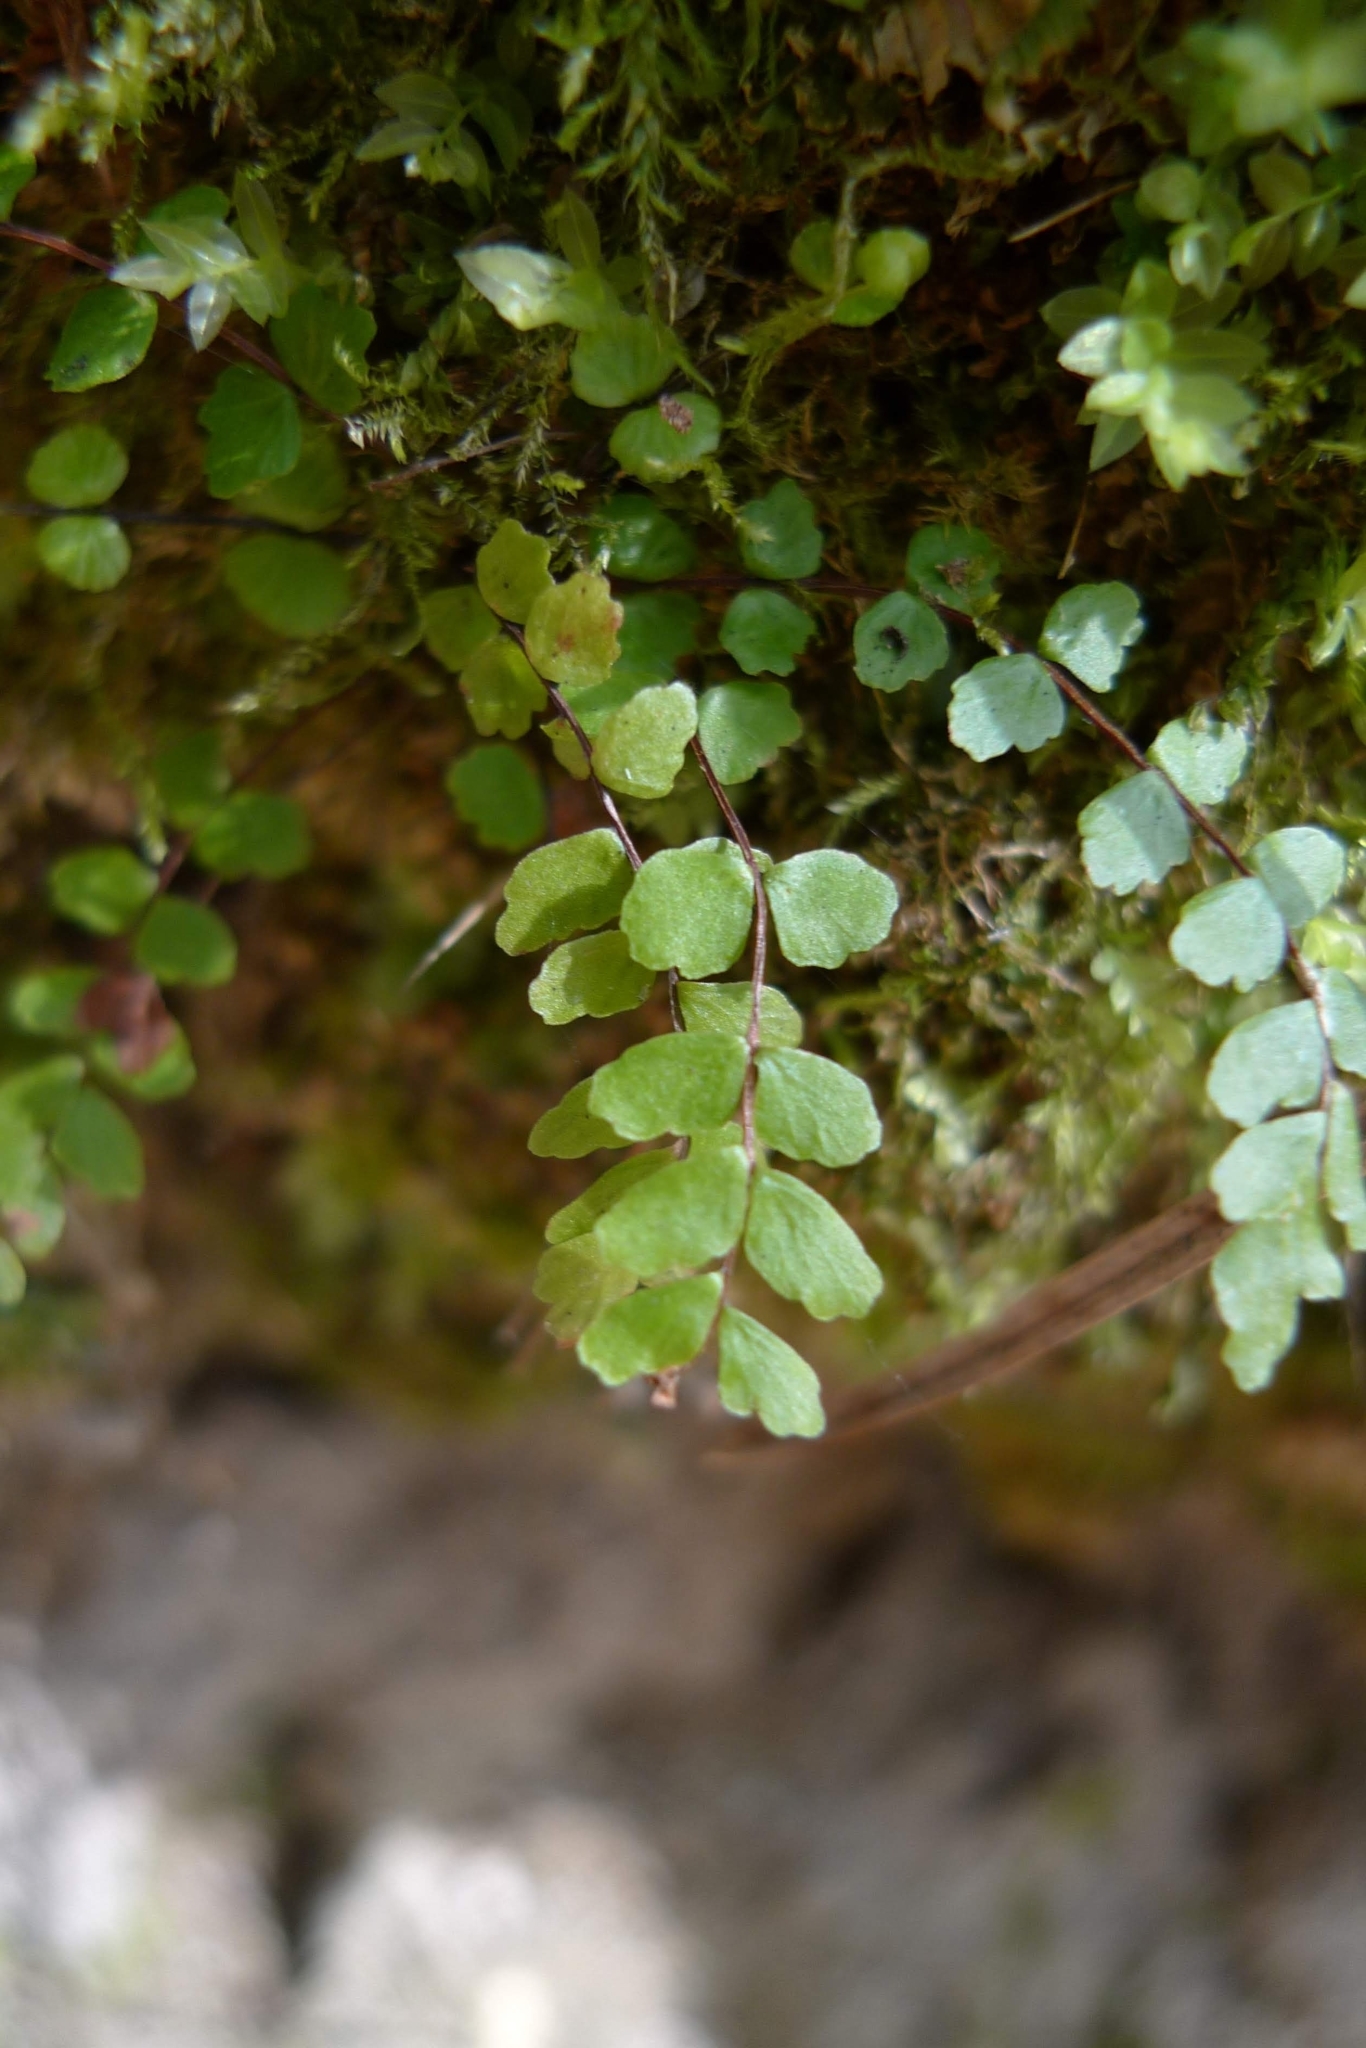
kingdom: Plantae
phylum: Tracheophyta
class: Polypodiopsida
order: Polypodiales
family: Aspleniaceae
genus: Asplenium
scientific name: Asplenium trichomanes
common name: Maidenhair spleenwort
